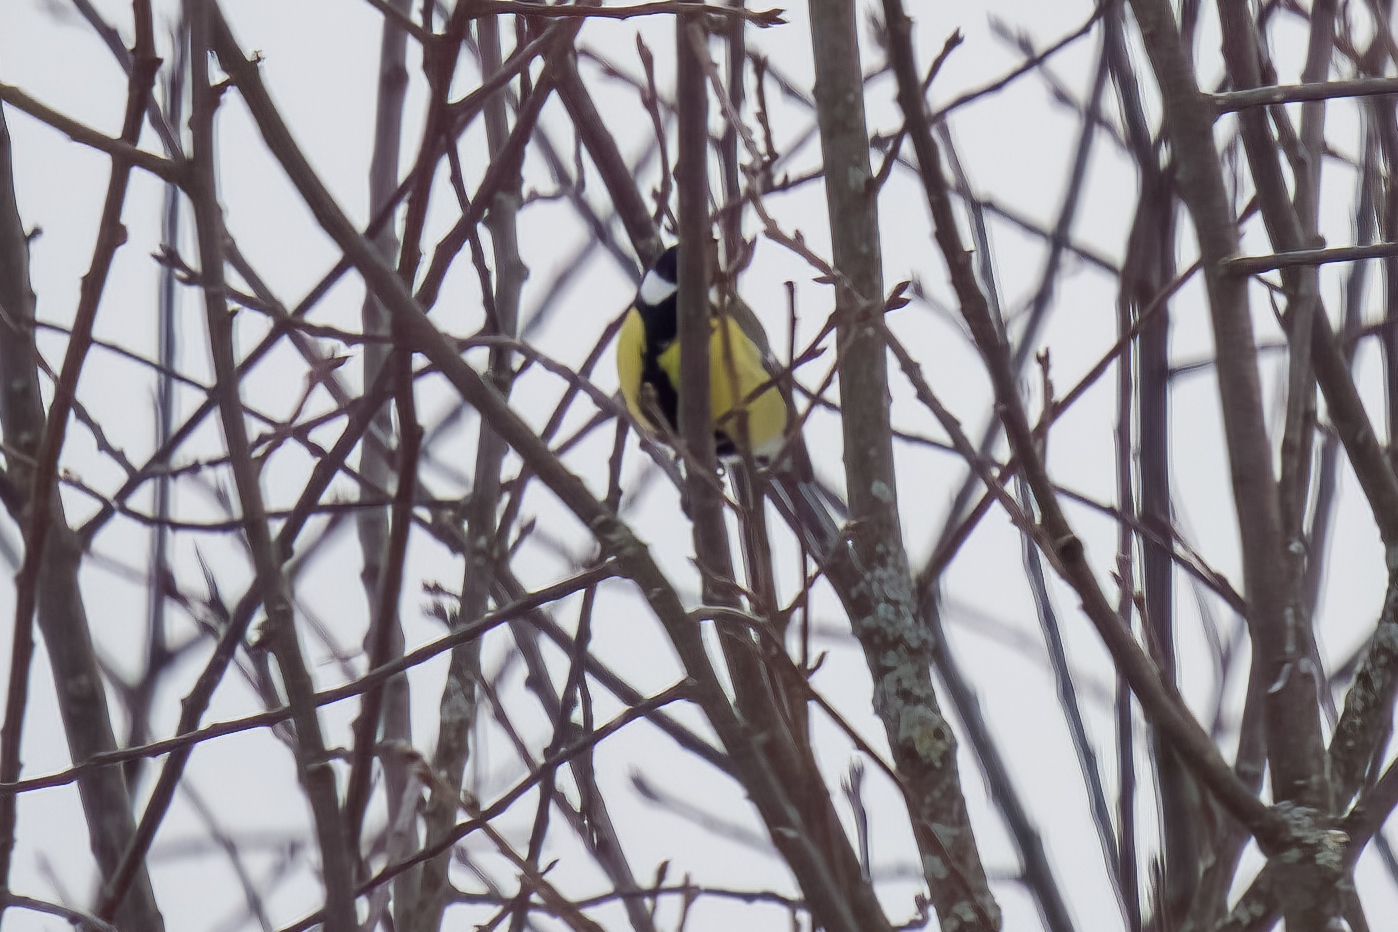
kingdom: Animalia
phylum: Chordata
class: Aves
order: Passeriformes
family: Paridae
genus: Parus
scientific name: Parus major
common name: Great tit
